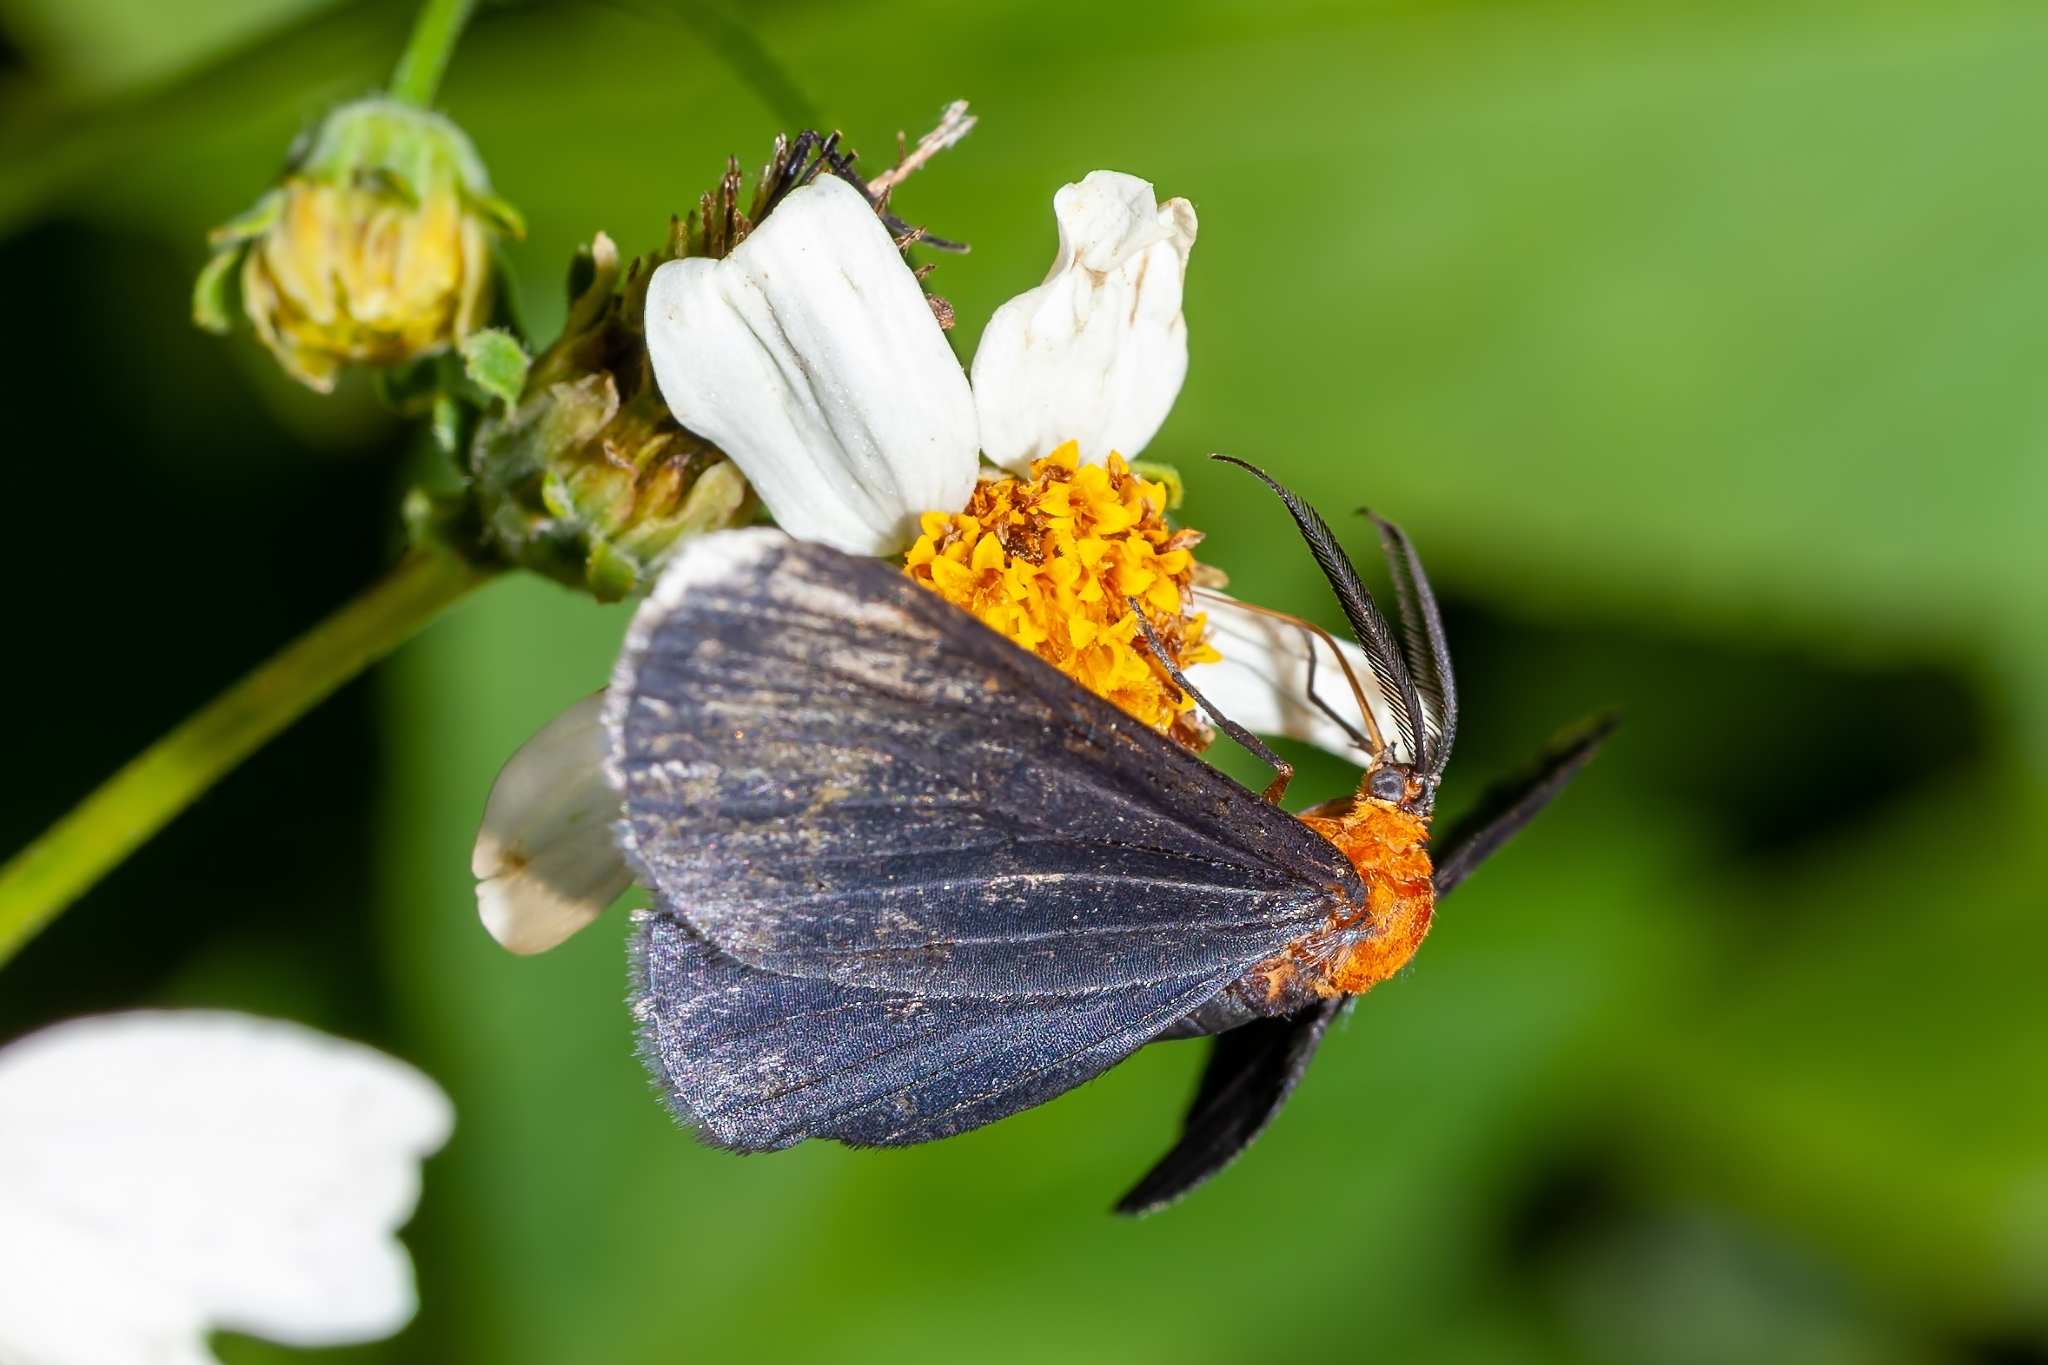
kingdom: Animalia
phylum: Arthropoda
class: Insecta
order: Lepidoptera
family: Geometridae
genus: Melanchroia
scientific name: Melanchroia chephise
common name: White-tipped black
